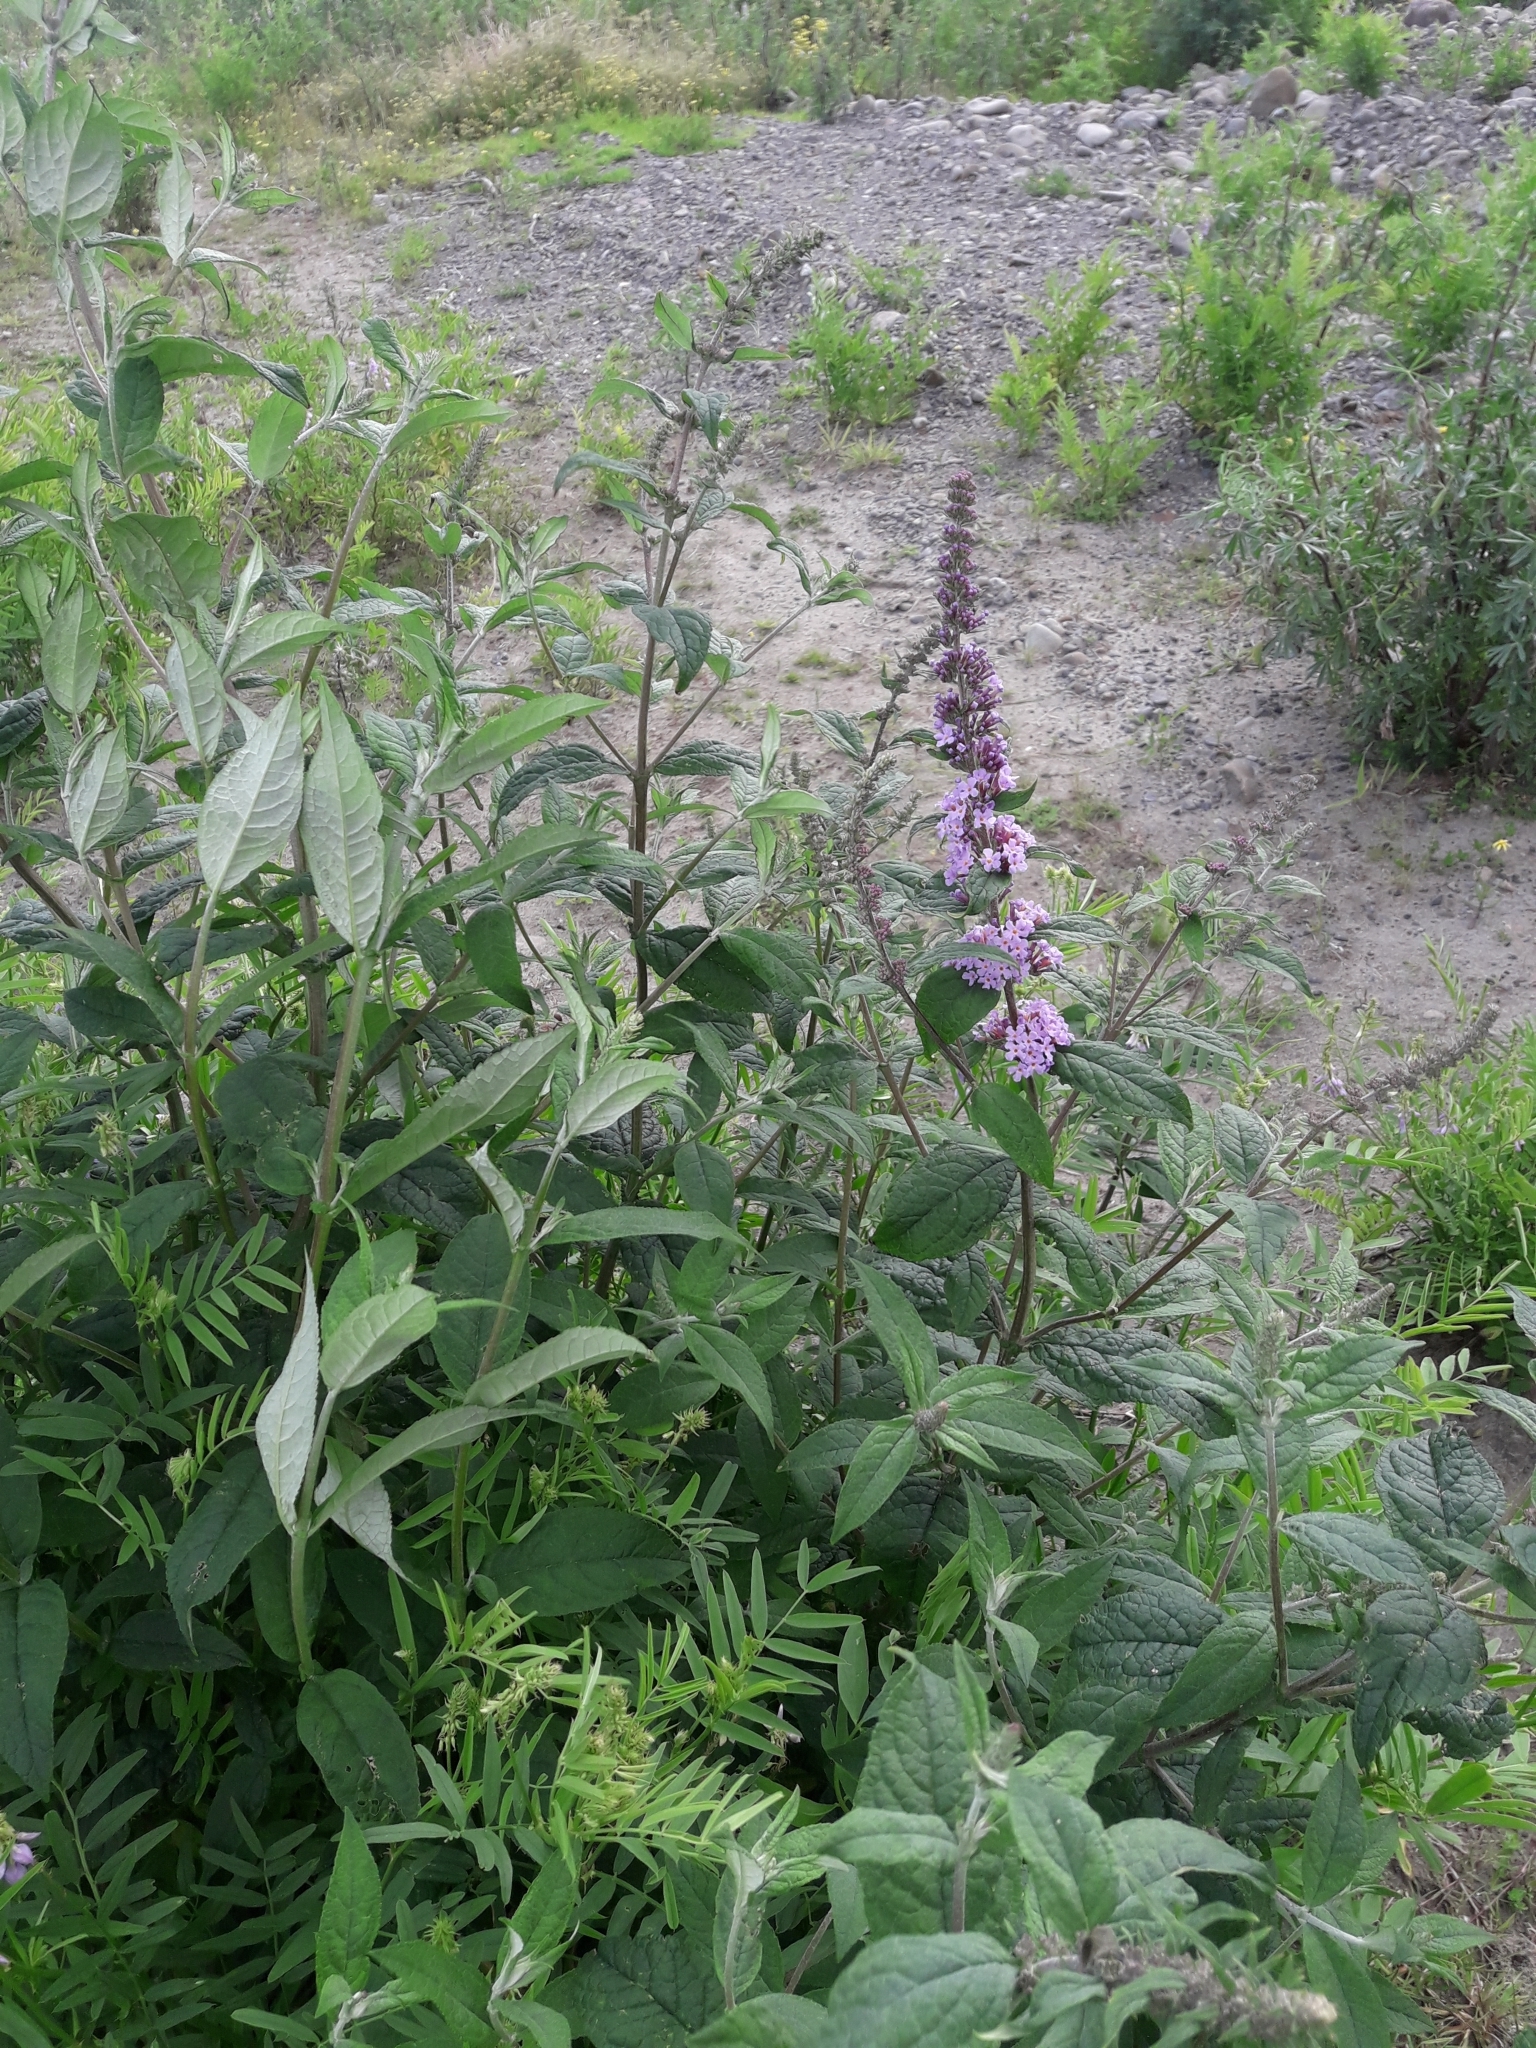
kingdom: Plantae
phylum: Tracheophyta
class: Magnoliopsida
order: Lamiales
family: Scrophulariaceae
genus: Buddleja
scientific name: Buddleja davidii
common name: Butterfly-bush
